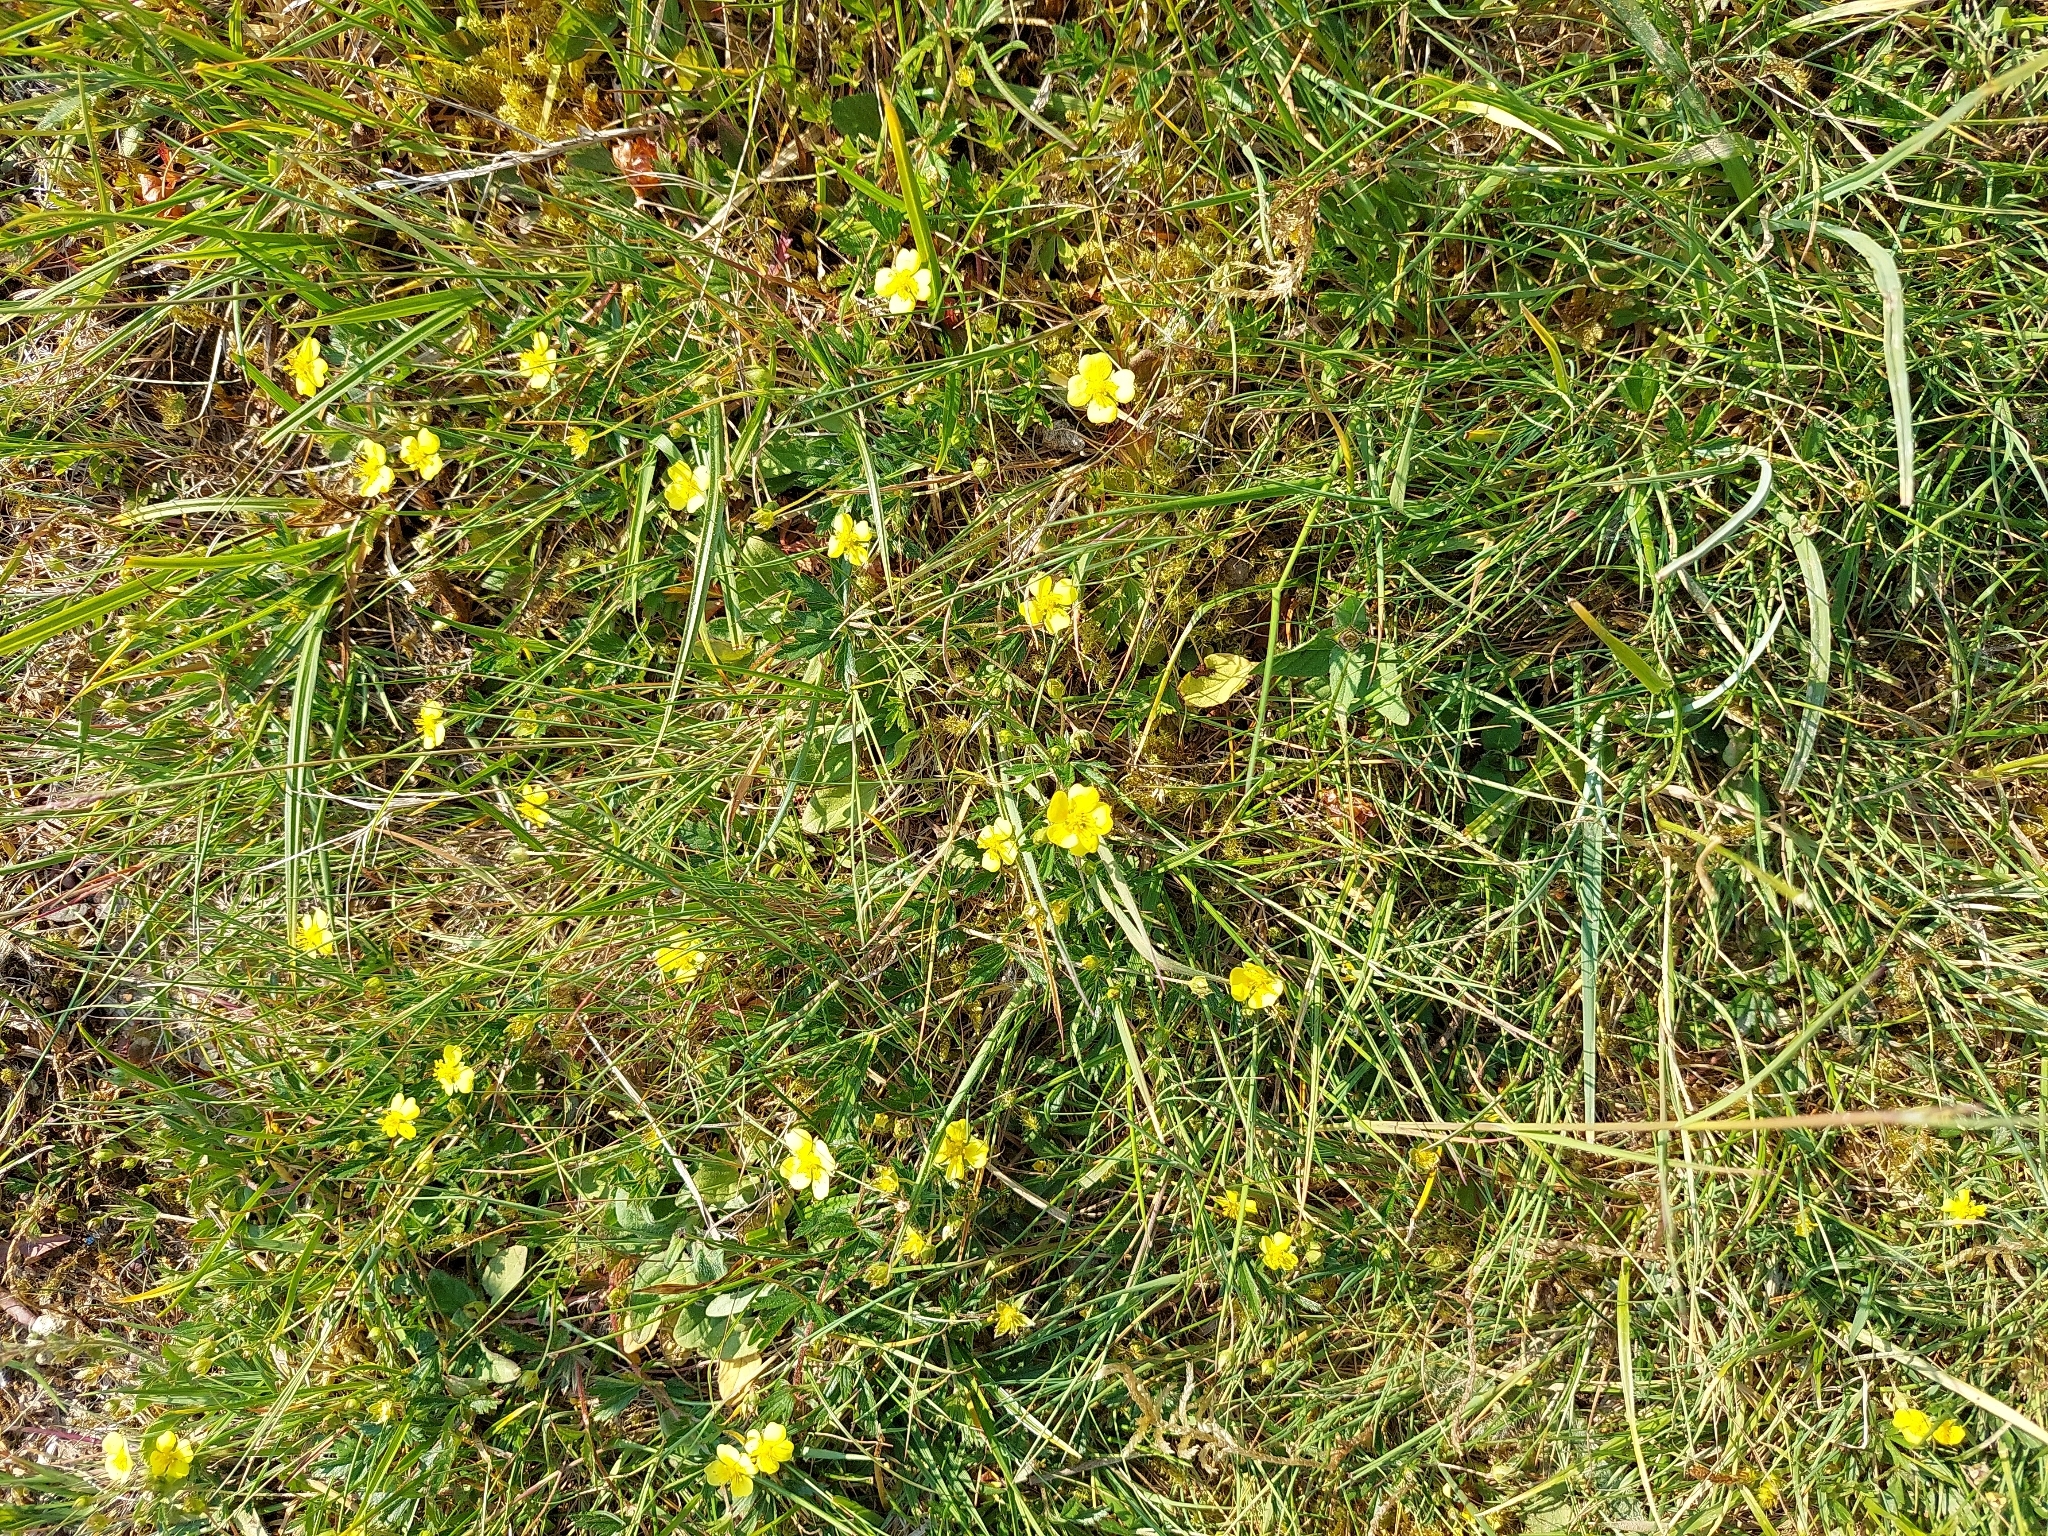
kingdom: Plantae
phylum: Tracheophyta
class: Magnoliopsida
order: Rosales
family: Rosaceae
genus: Potentilla
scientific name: Potentilla erecta
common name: Tormentil
